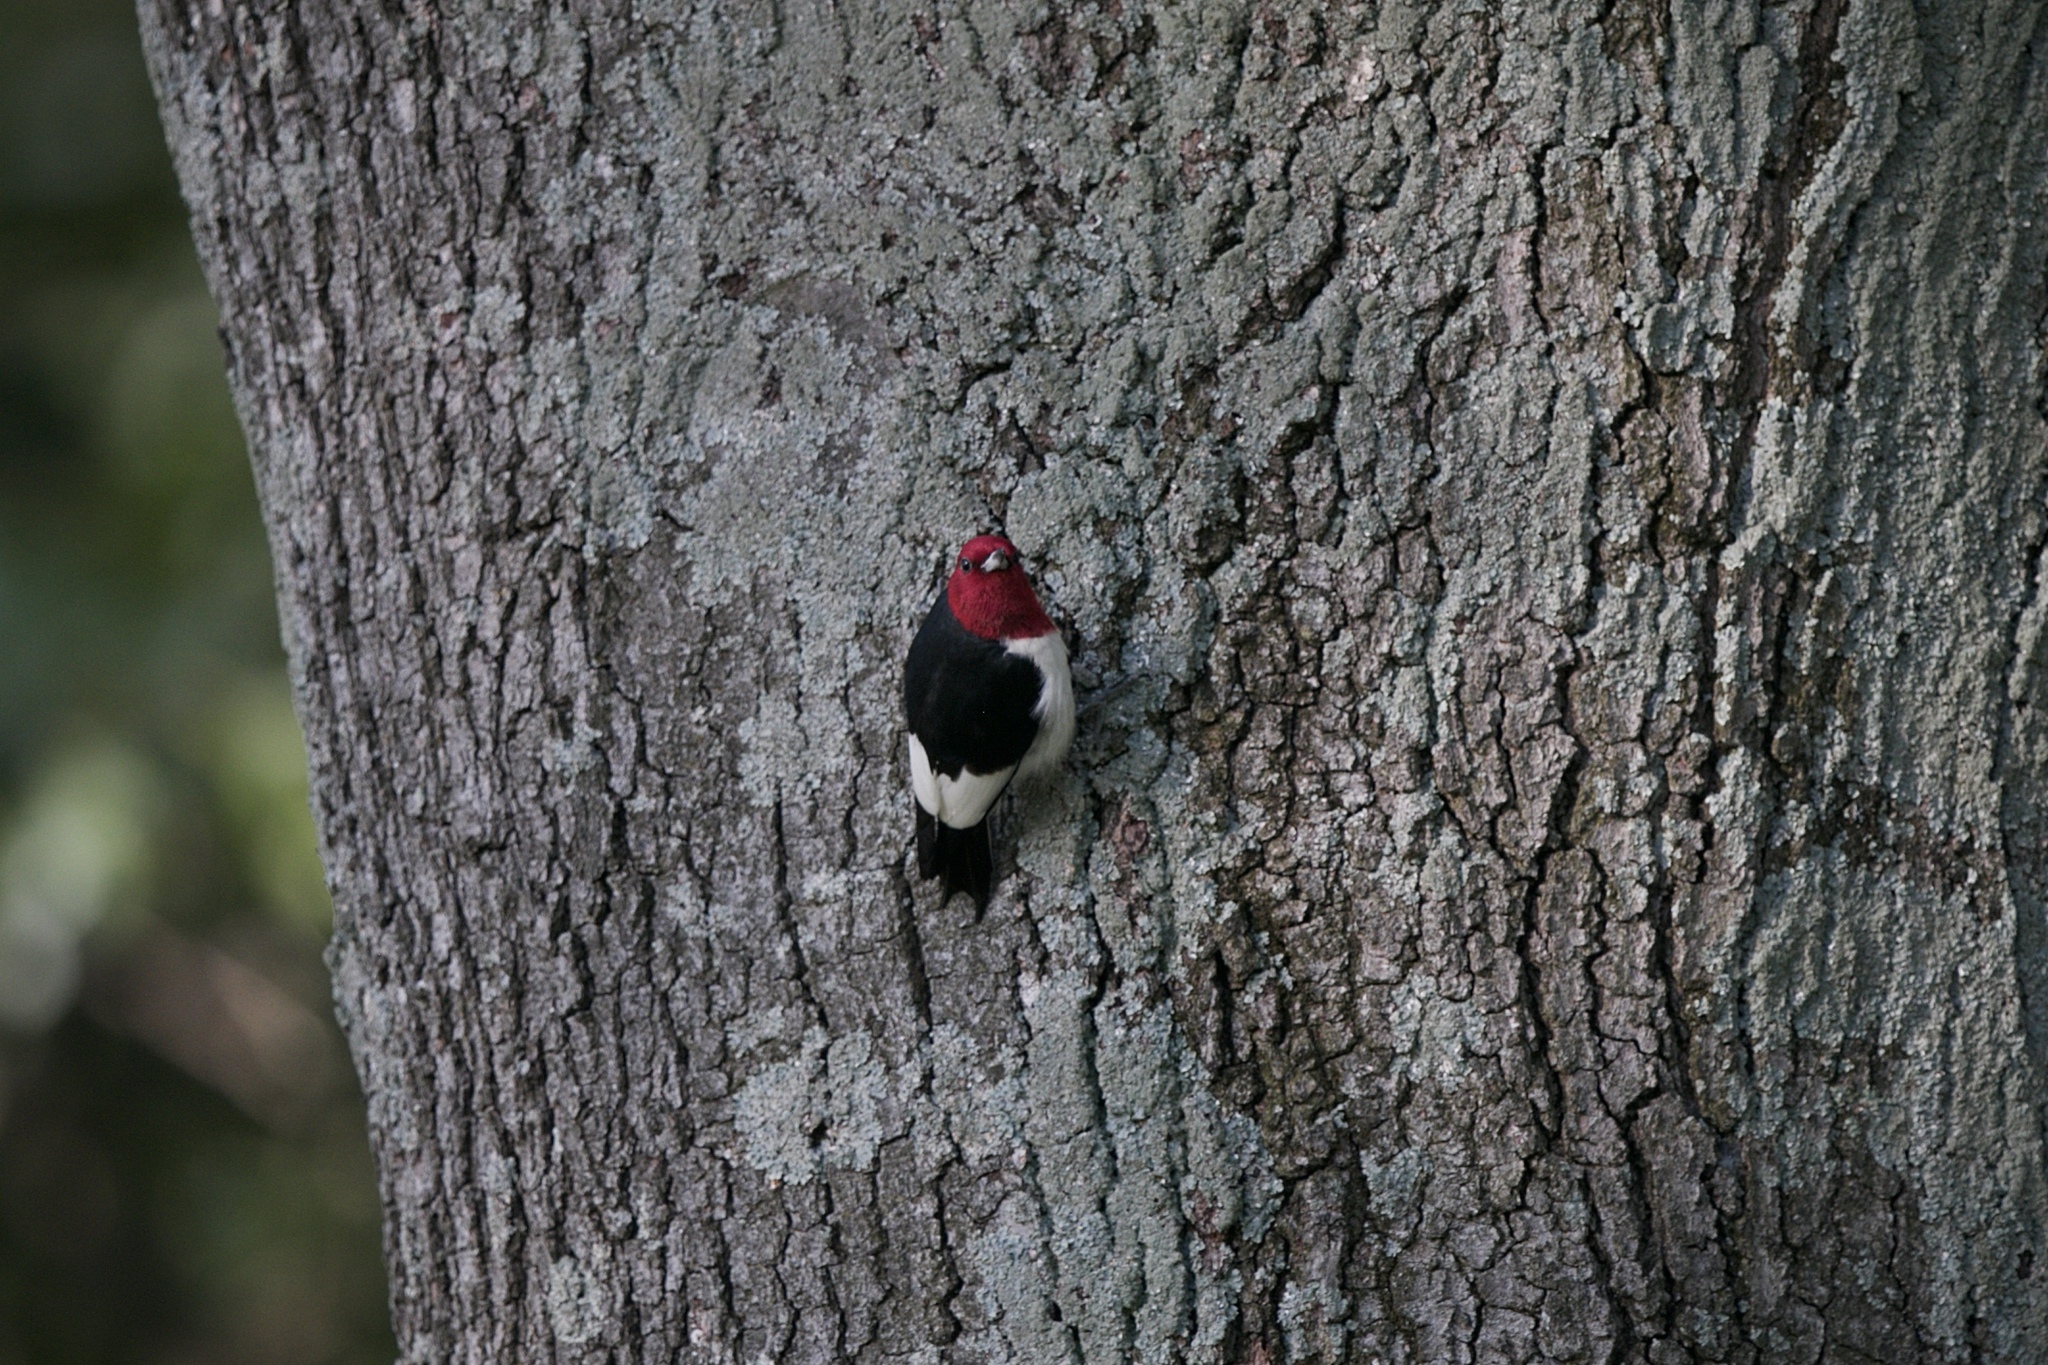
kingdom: Animalia
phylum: Chordata
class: Aves
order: Piciformes
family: Picidae
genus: Melanerpes
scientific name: Melanerpes erythrocephalus
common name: Red-headed woodpecker
